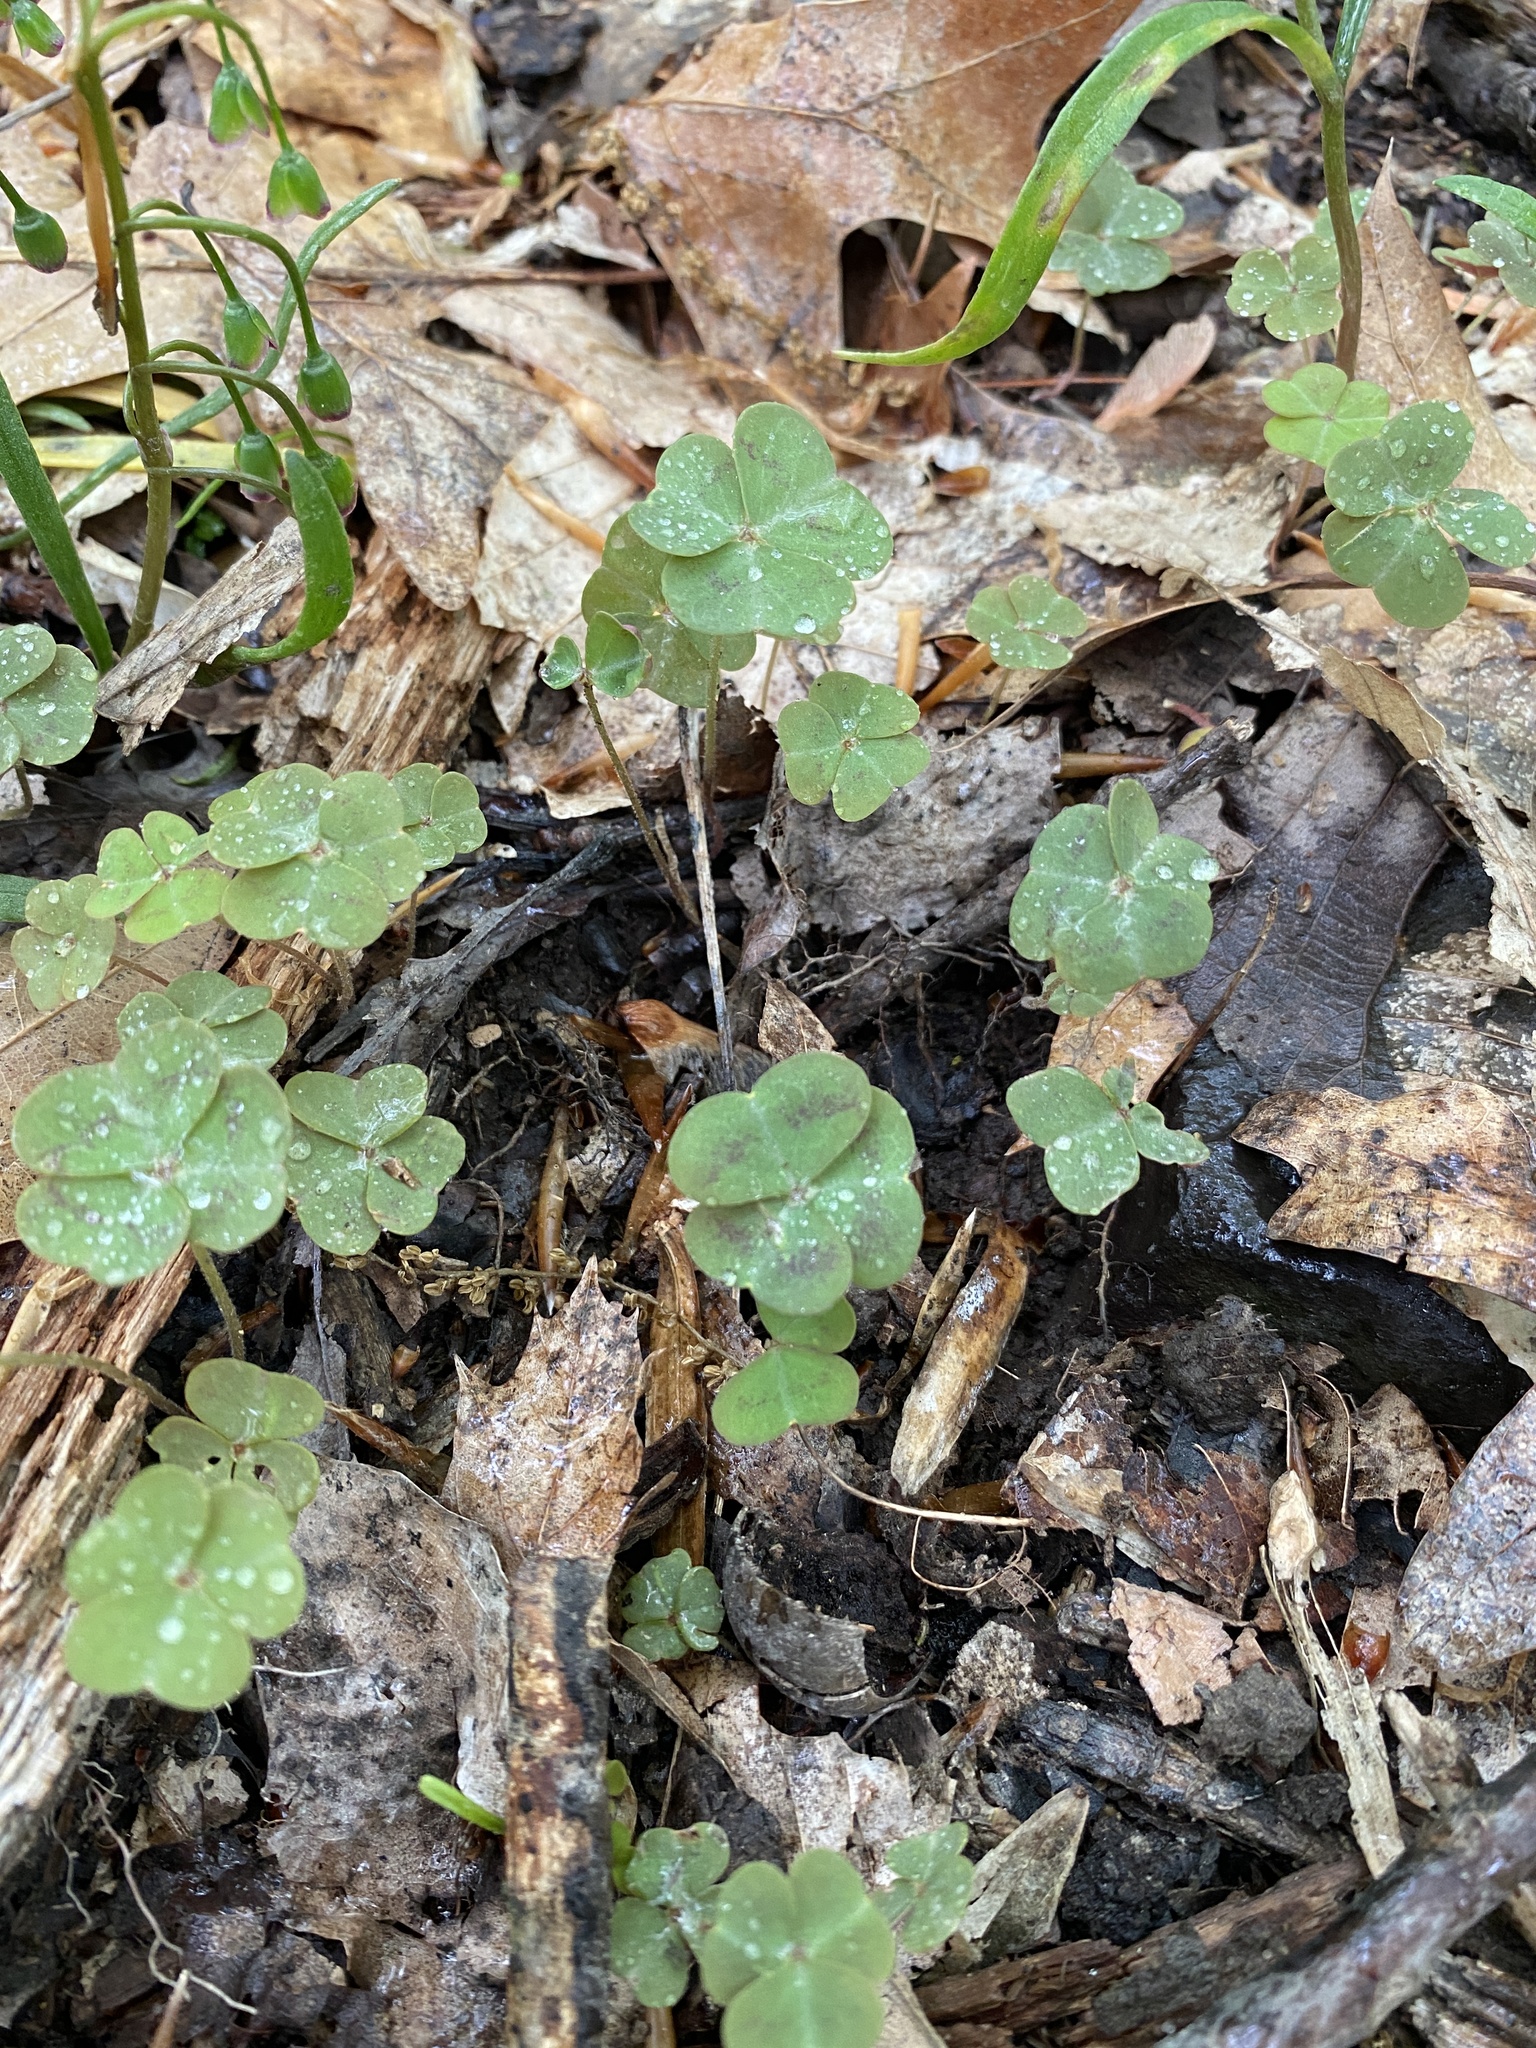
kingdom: Plantae
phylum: Tracheophyta
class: Magnoliopsida
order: Oxalidales
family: Oxalidaceae
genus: Oxalis
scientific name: Oxalis violacea
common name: Violet wood-sorrel
